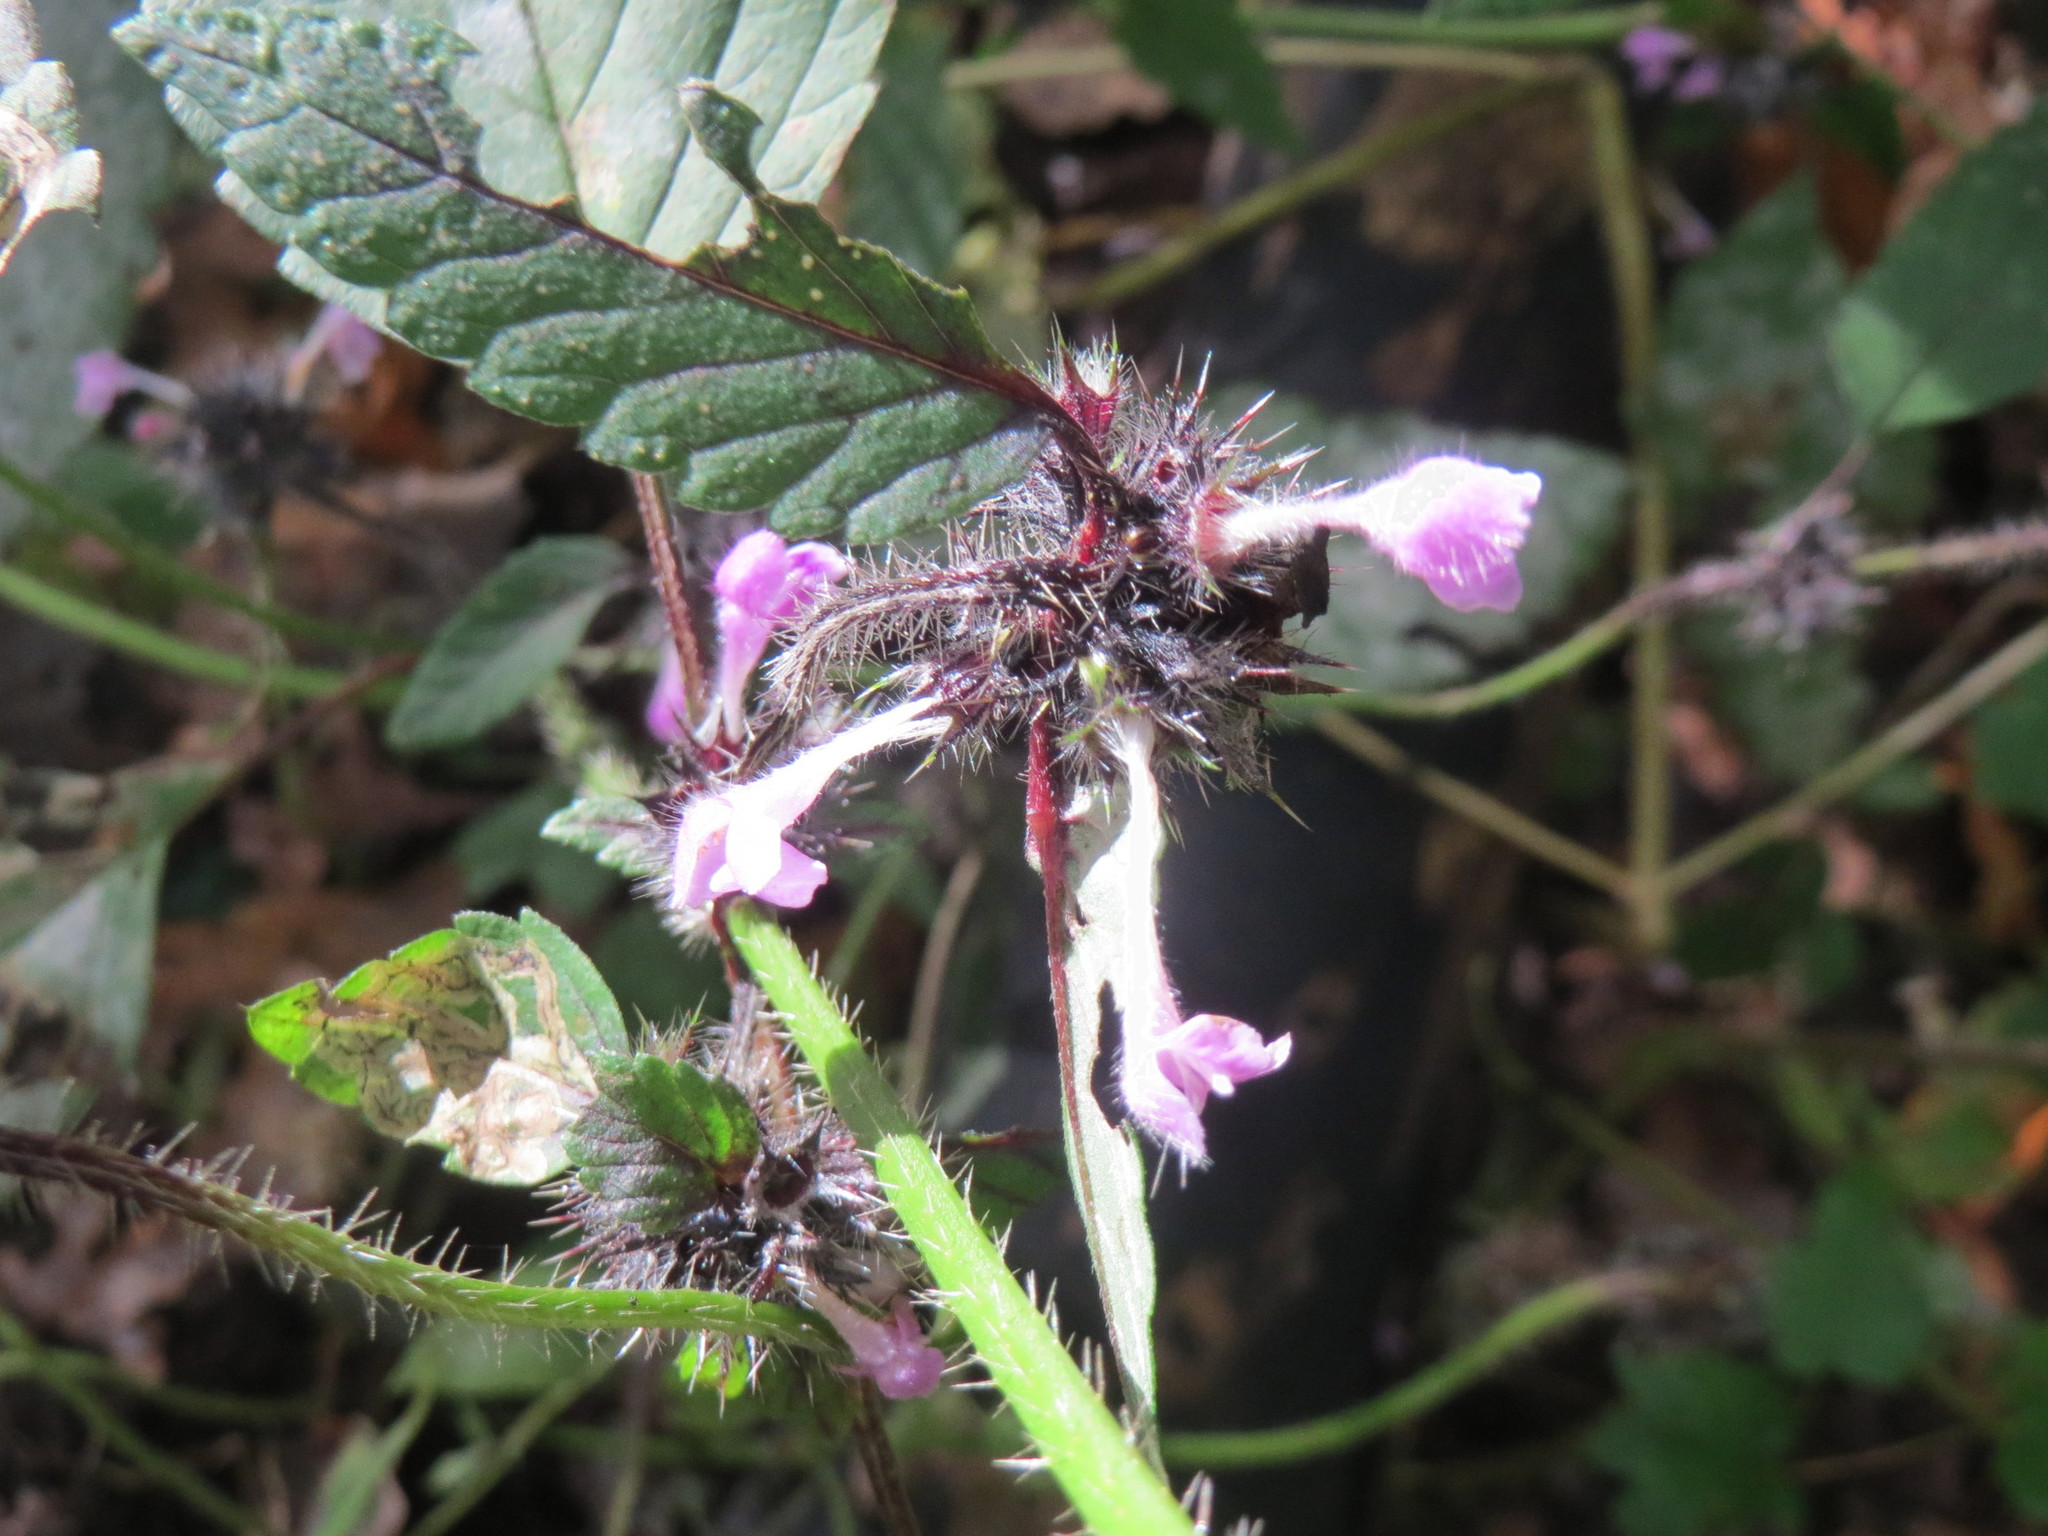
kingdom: Plantae
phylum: Tracheophyta
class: Magnoliopsida
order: Lamiales
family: Lamiaceae
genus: Galeopsis
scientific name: Galeopsis tetrahit
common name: Common hemp-nettle
